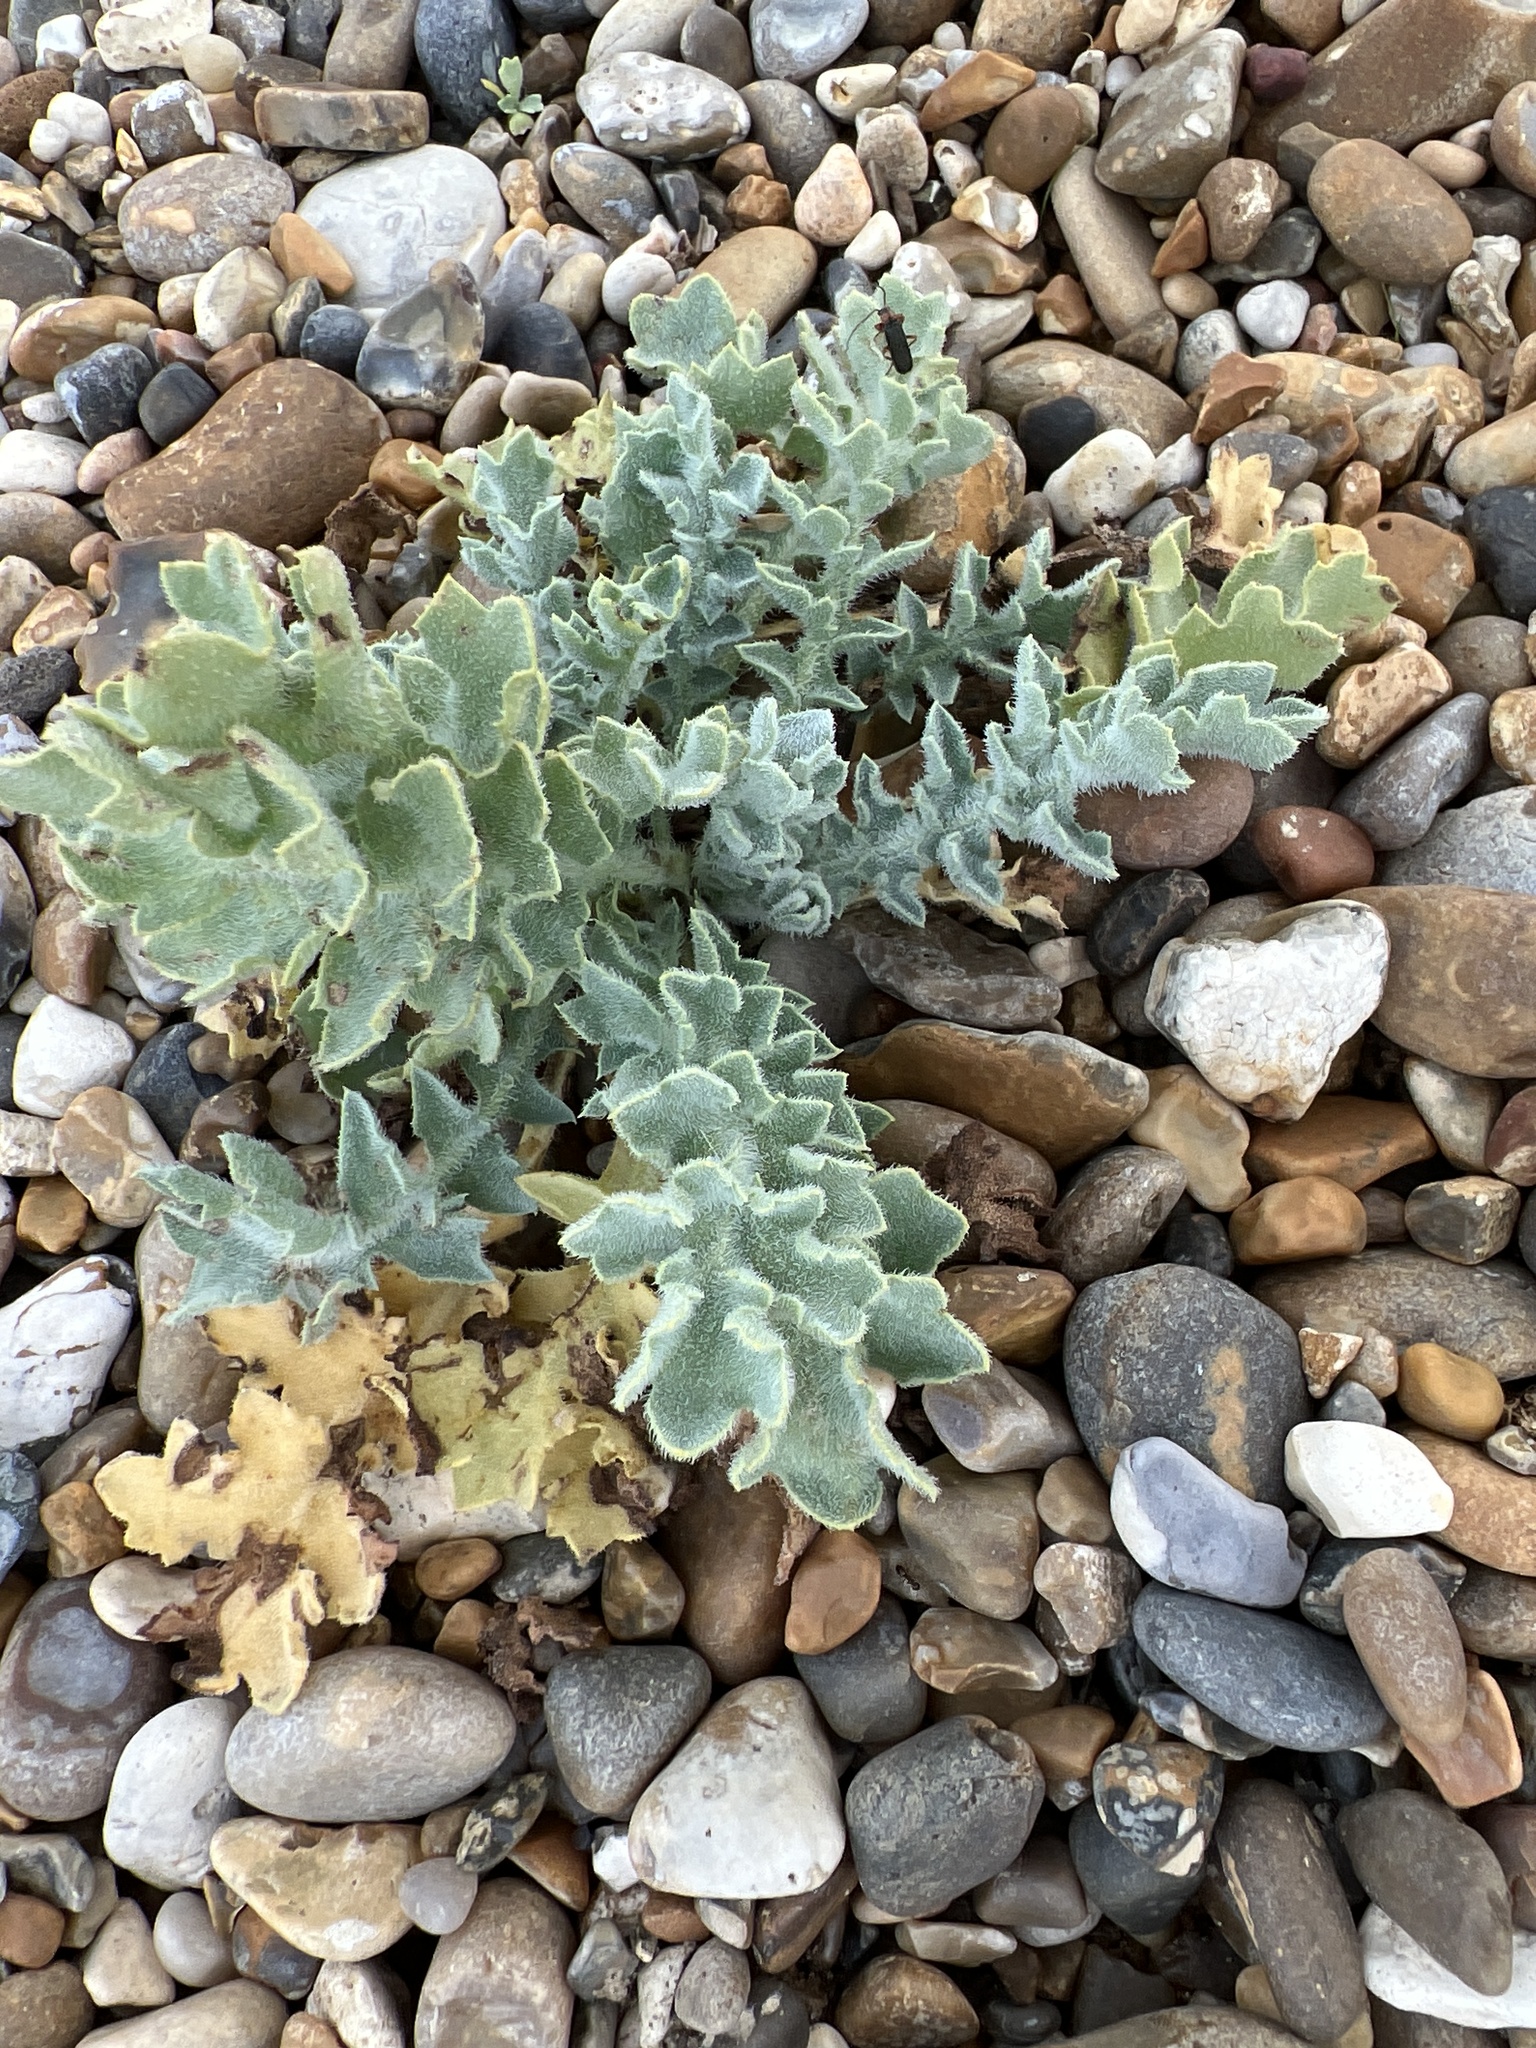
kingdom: Plantae
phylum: Tracheophyta
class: Magnoliopsida
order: Ranunculales
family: Papaveraceae
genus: Glaucium
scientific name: Glaucium flavum
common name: Yellow horned-poppy
